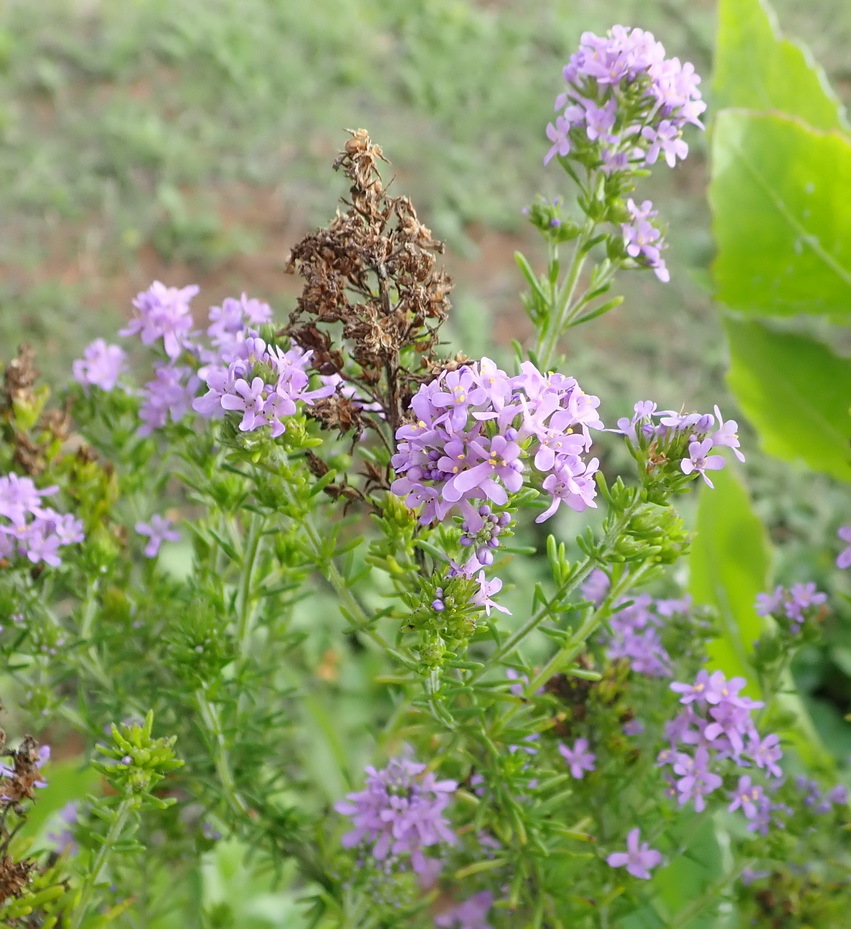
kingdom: Plantae
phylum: Tracheophyta
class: Magnoliopsida
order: Lamiales
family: Scrophulariaceae
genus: Selago
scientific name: Selago villicaulis
